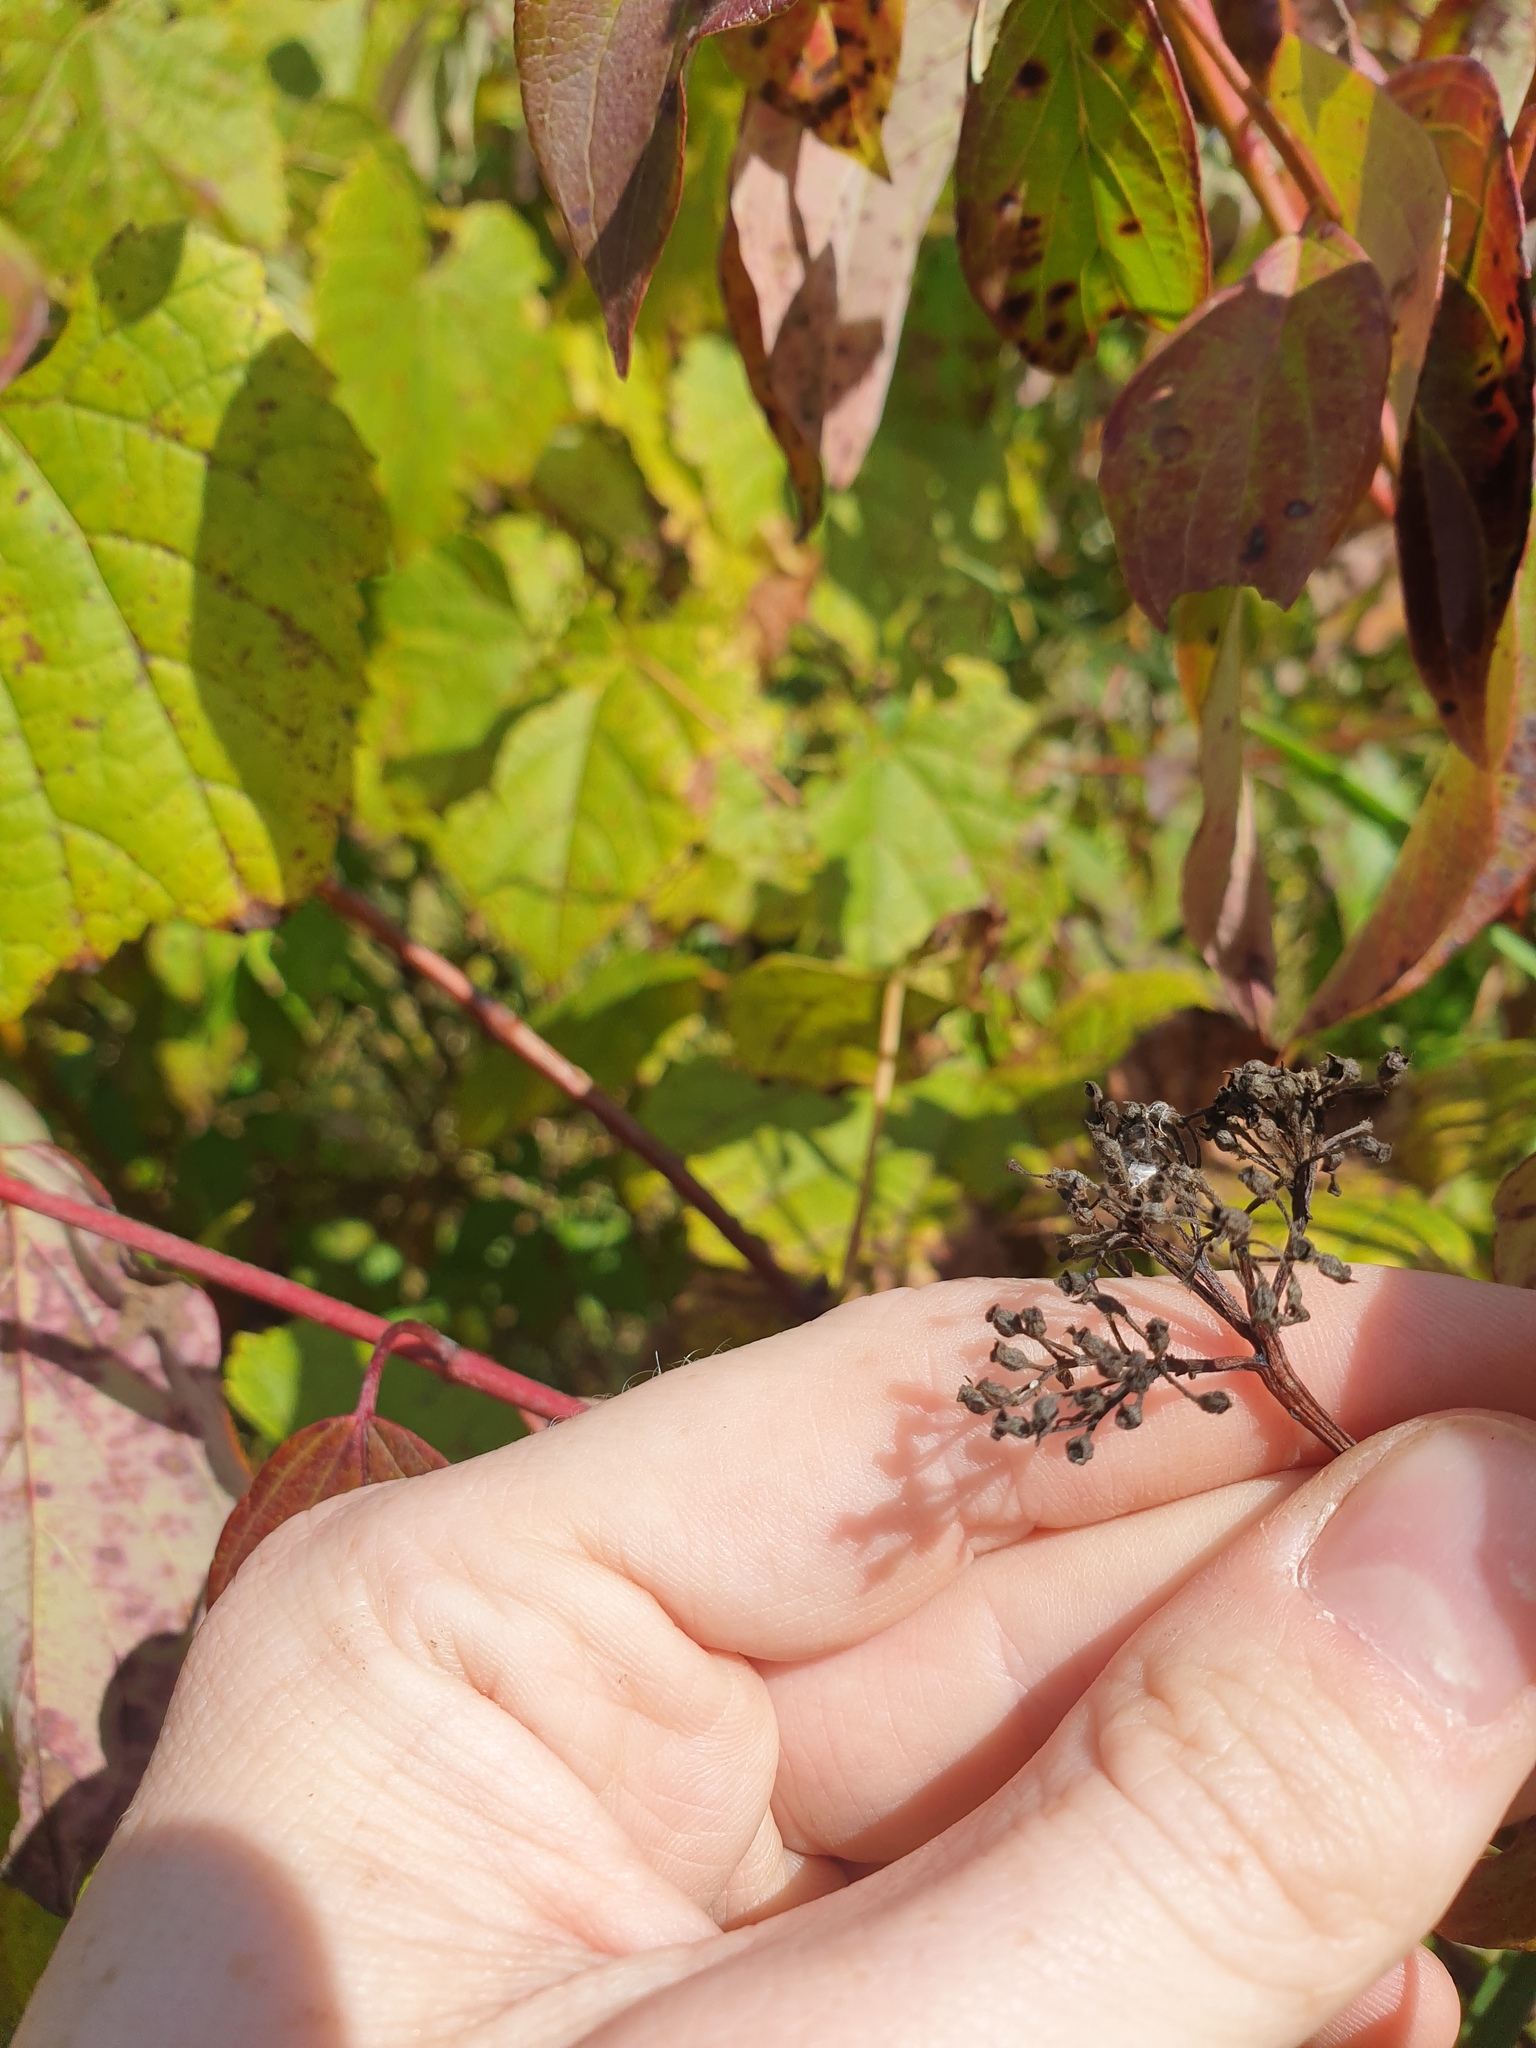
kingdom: Plantae
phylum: Tracheophyta
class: Magnoliopsida
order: Cornales
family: Cornaceae
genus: Cornus
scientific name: Cornus obliqua
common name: Pale dogwood
